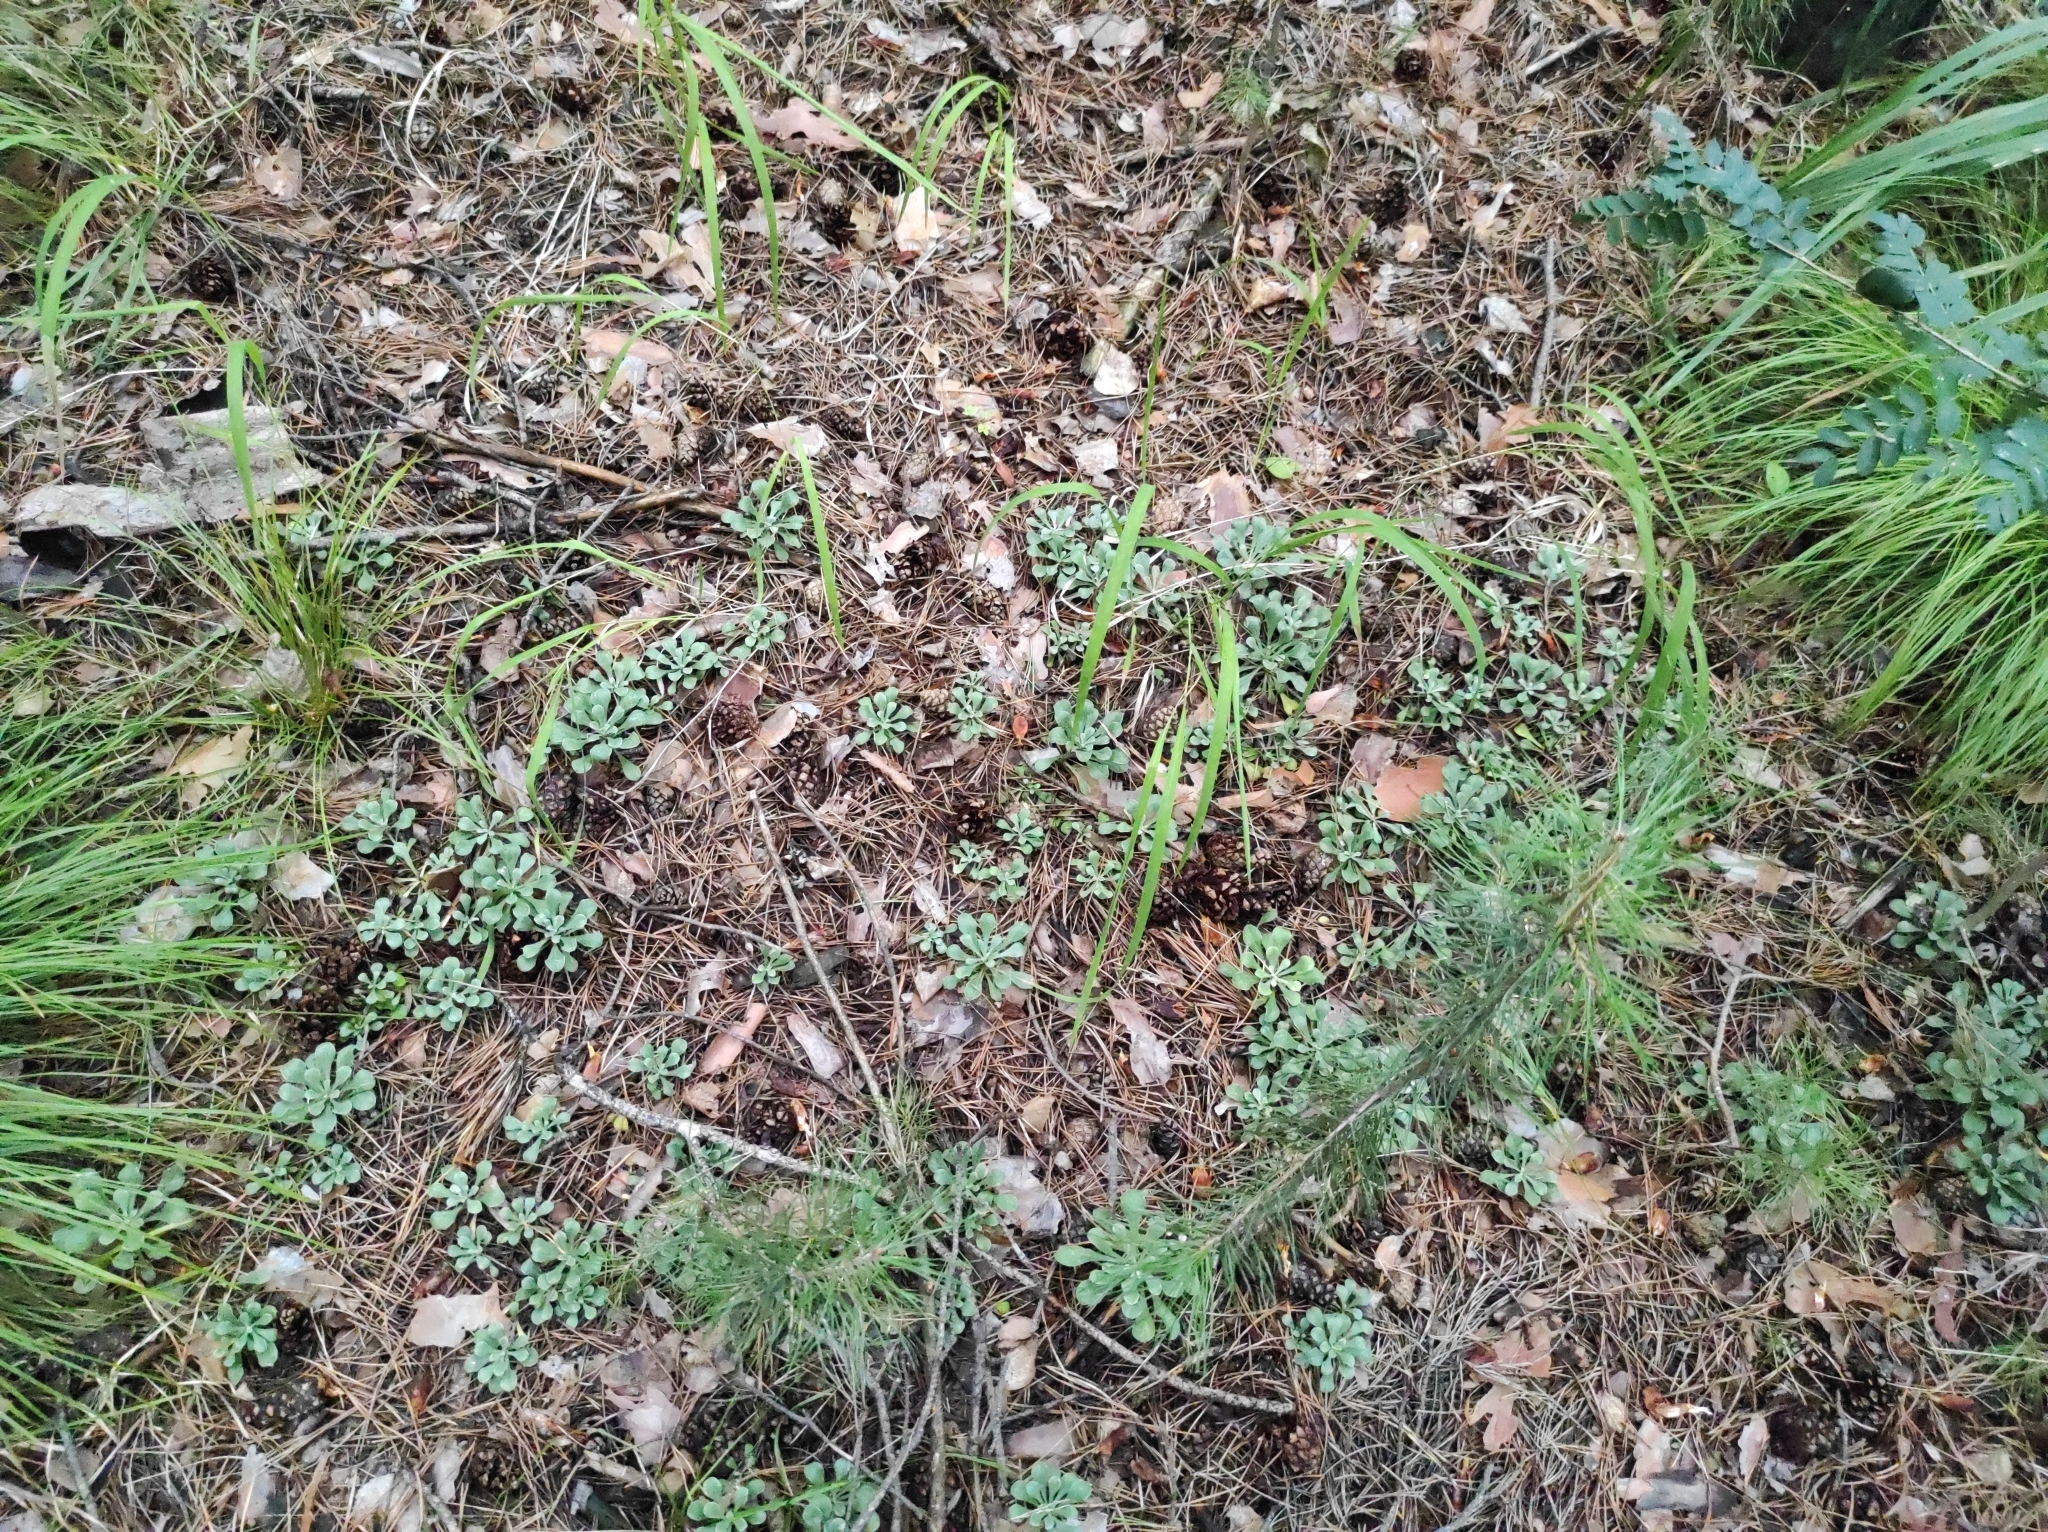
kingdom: Plantae
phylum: Tracheophyta
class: Magnoliopsida
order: Asterales
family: Asteraceae
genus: Antennaria
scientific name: Antennaria dioica
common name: Mountain everlasting
